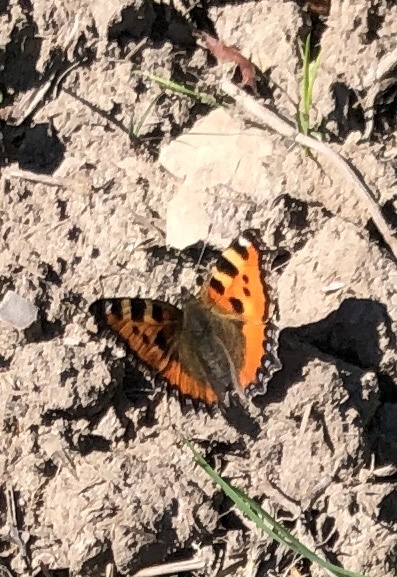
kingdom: Animalia
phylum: Arthropoda
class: Insecta
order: Lepidoptera
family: Nymphalidae
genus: Aglais
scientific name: Aglais urticae
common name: Small tortoiseshell
